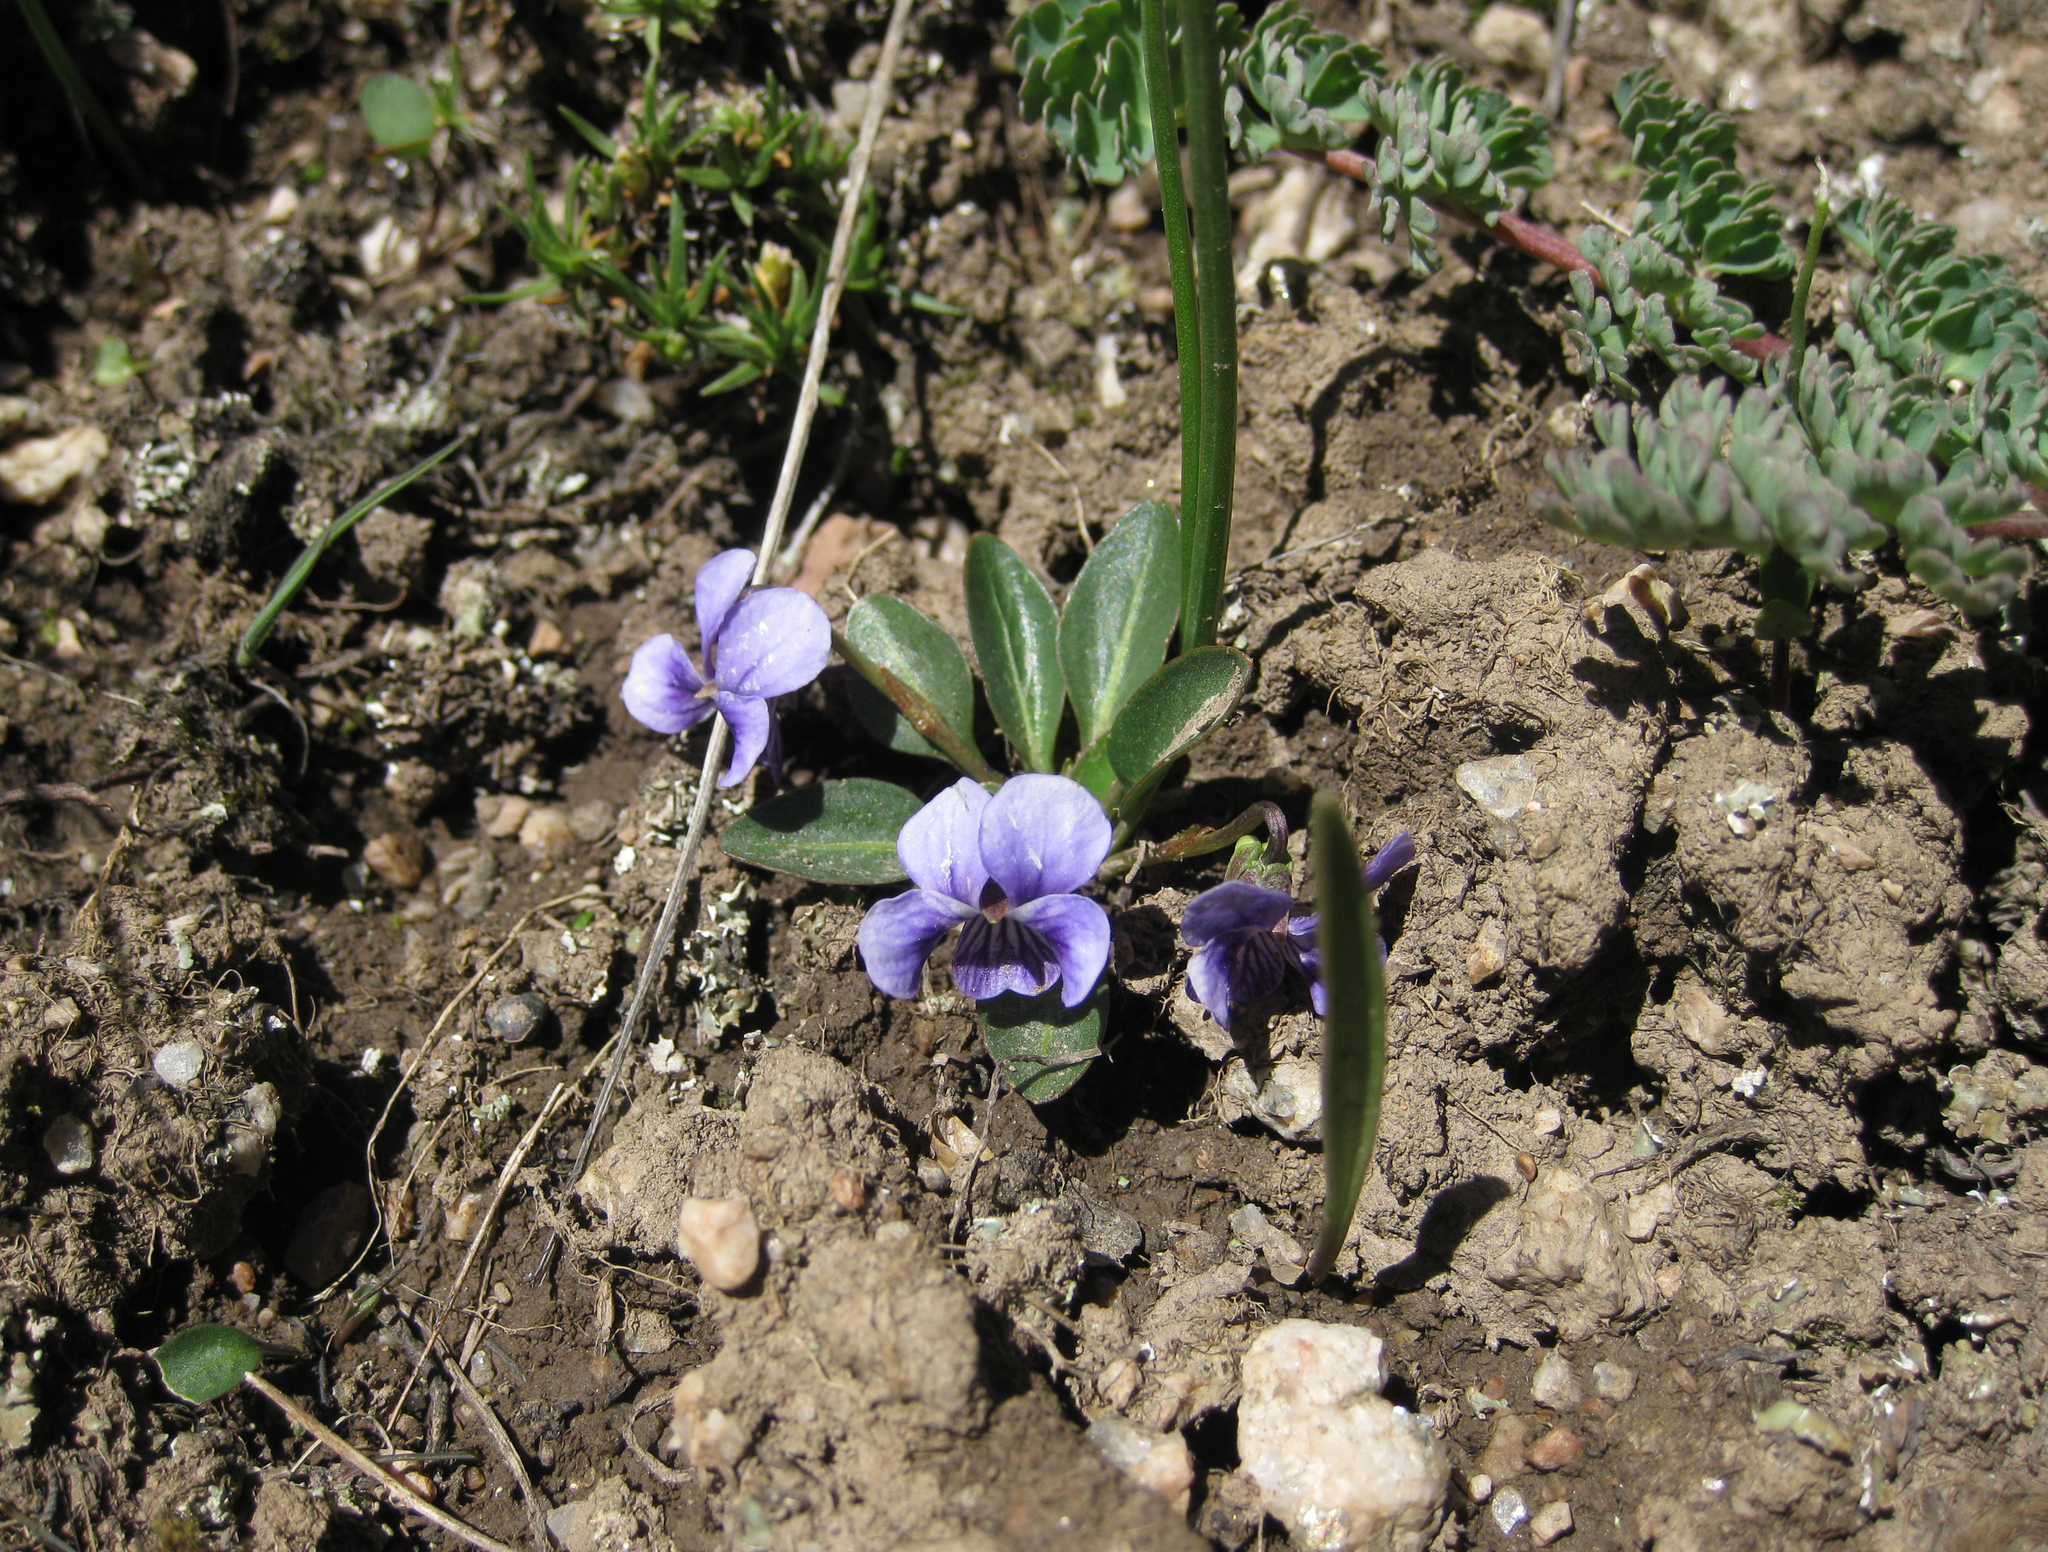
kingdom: Plantae
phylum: Tracheophyta
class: Magnoliopsida
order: Malpighiales
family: Violaceae
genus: Viola
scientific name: Viola kunawurensis
